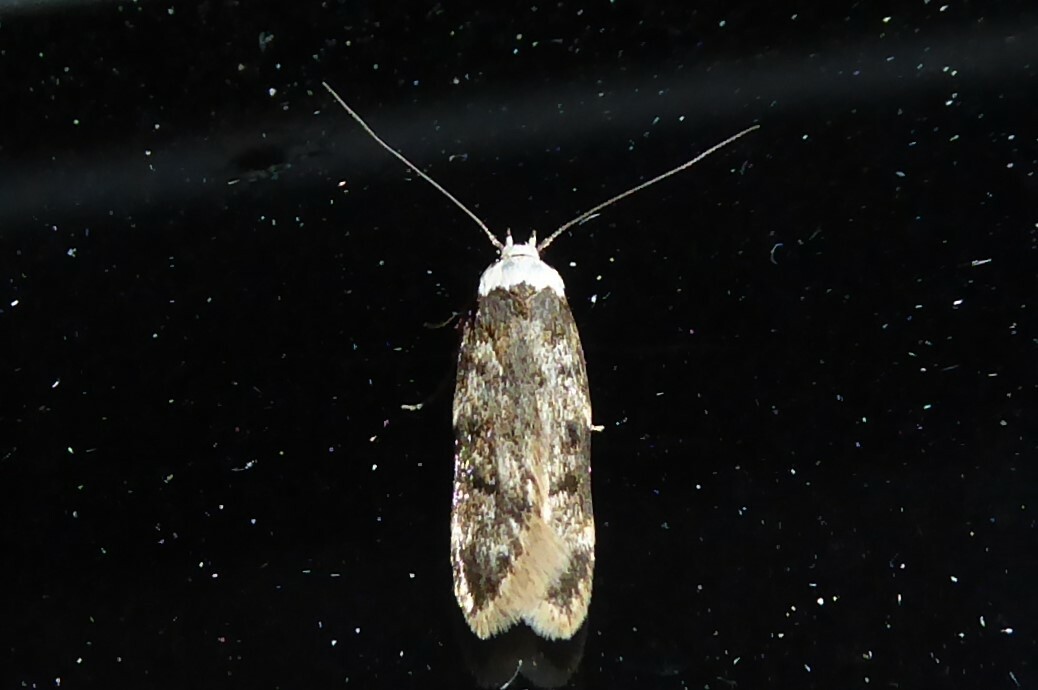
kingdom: Animalia
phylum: Arthropoda
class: Insecta
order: Lepidoptera
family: Oecophoridae
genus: Endrosis
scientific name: Endrosis sarcitrella
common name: White-shouldered house moth
